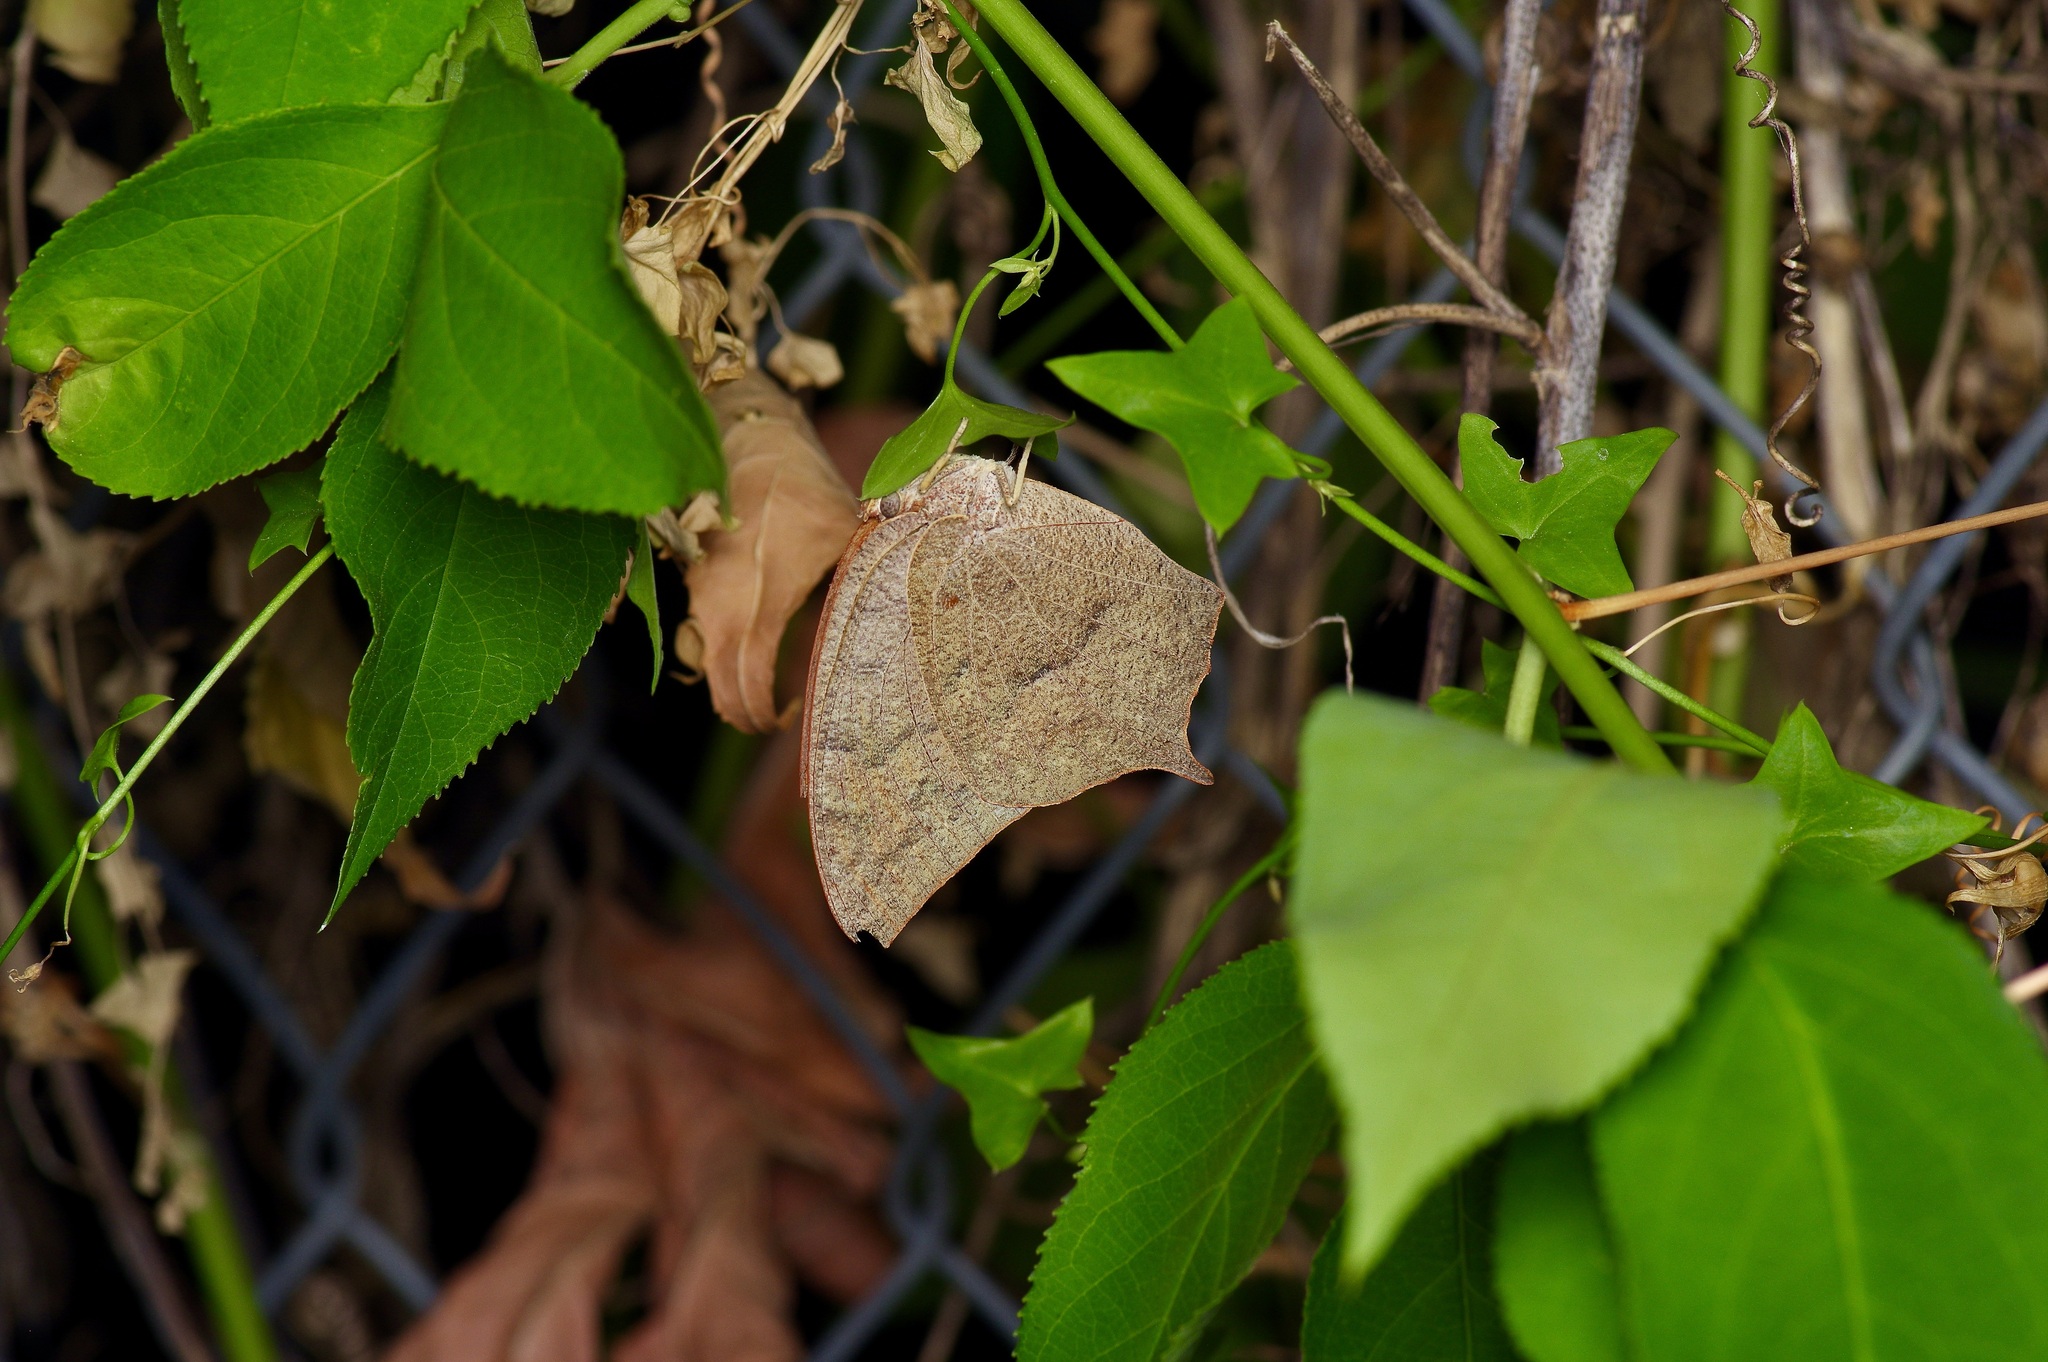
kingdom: Animalia
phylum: Arthropoda
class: Insecta
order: Lepidoptera
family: Nymphalidae
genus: Anaea
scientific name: Anaea andria
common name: Goatweed leafwing
